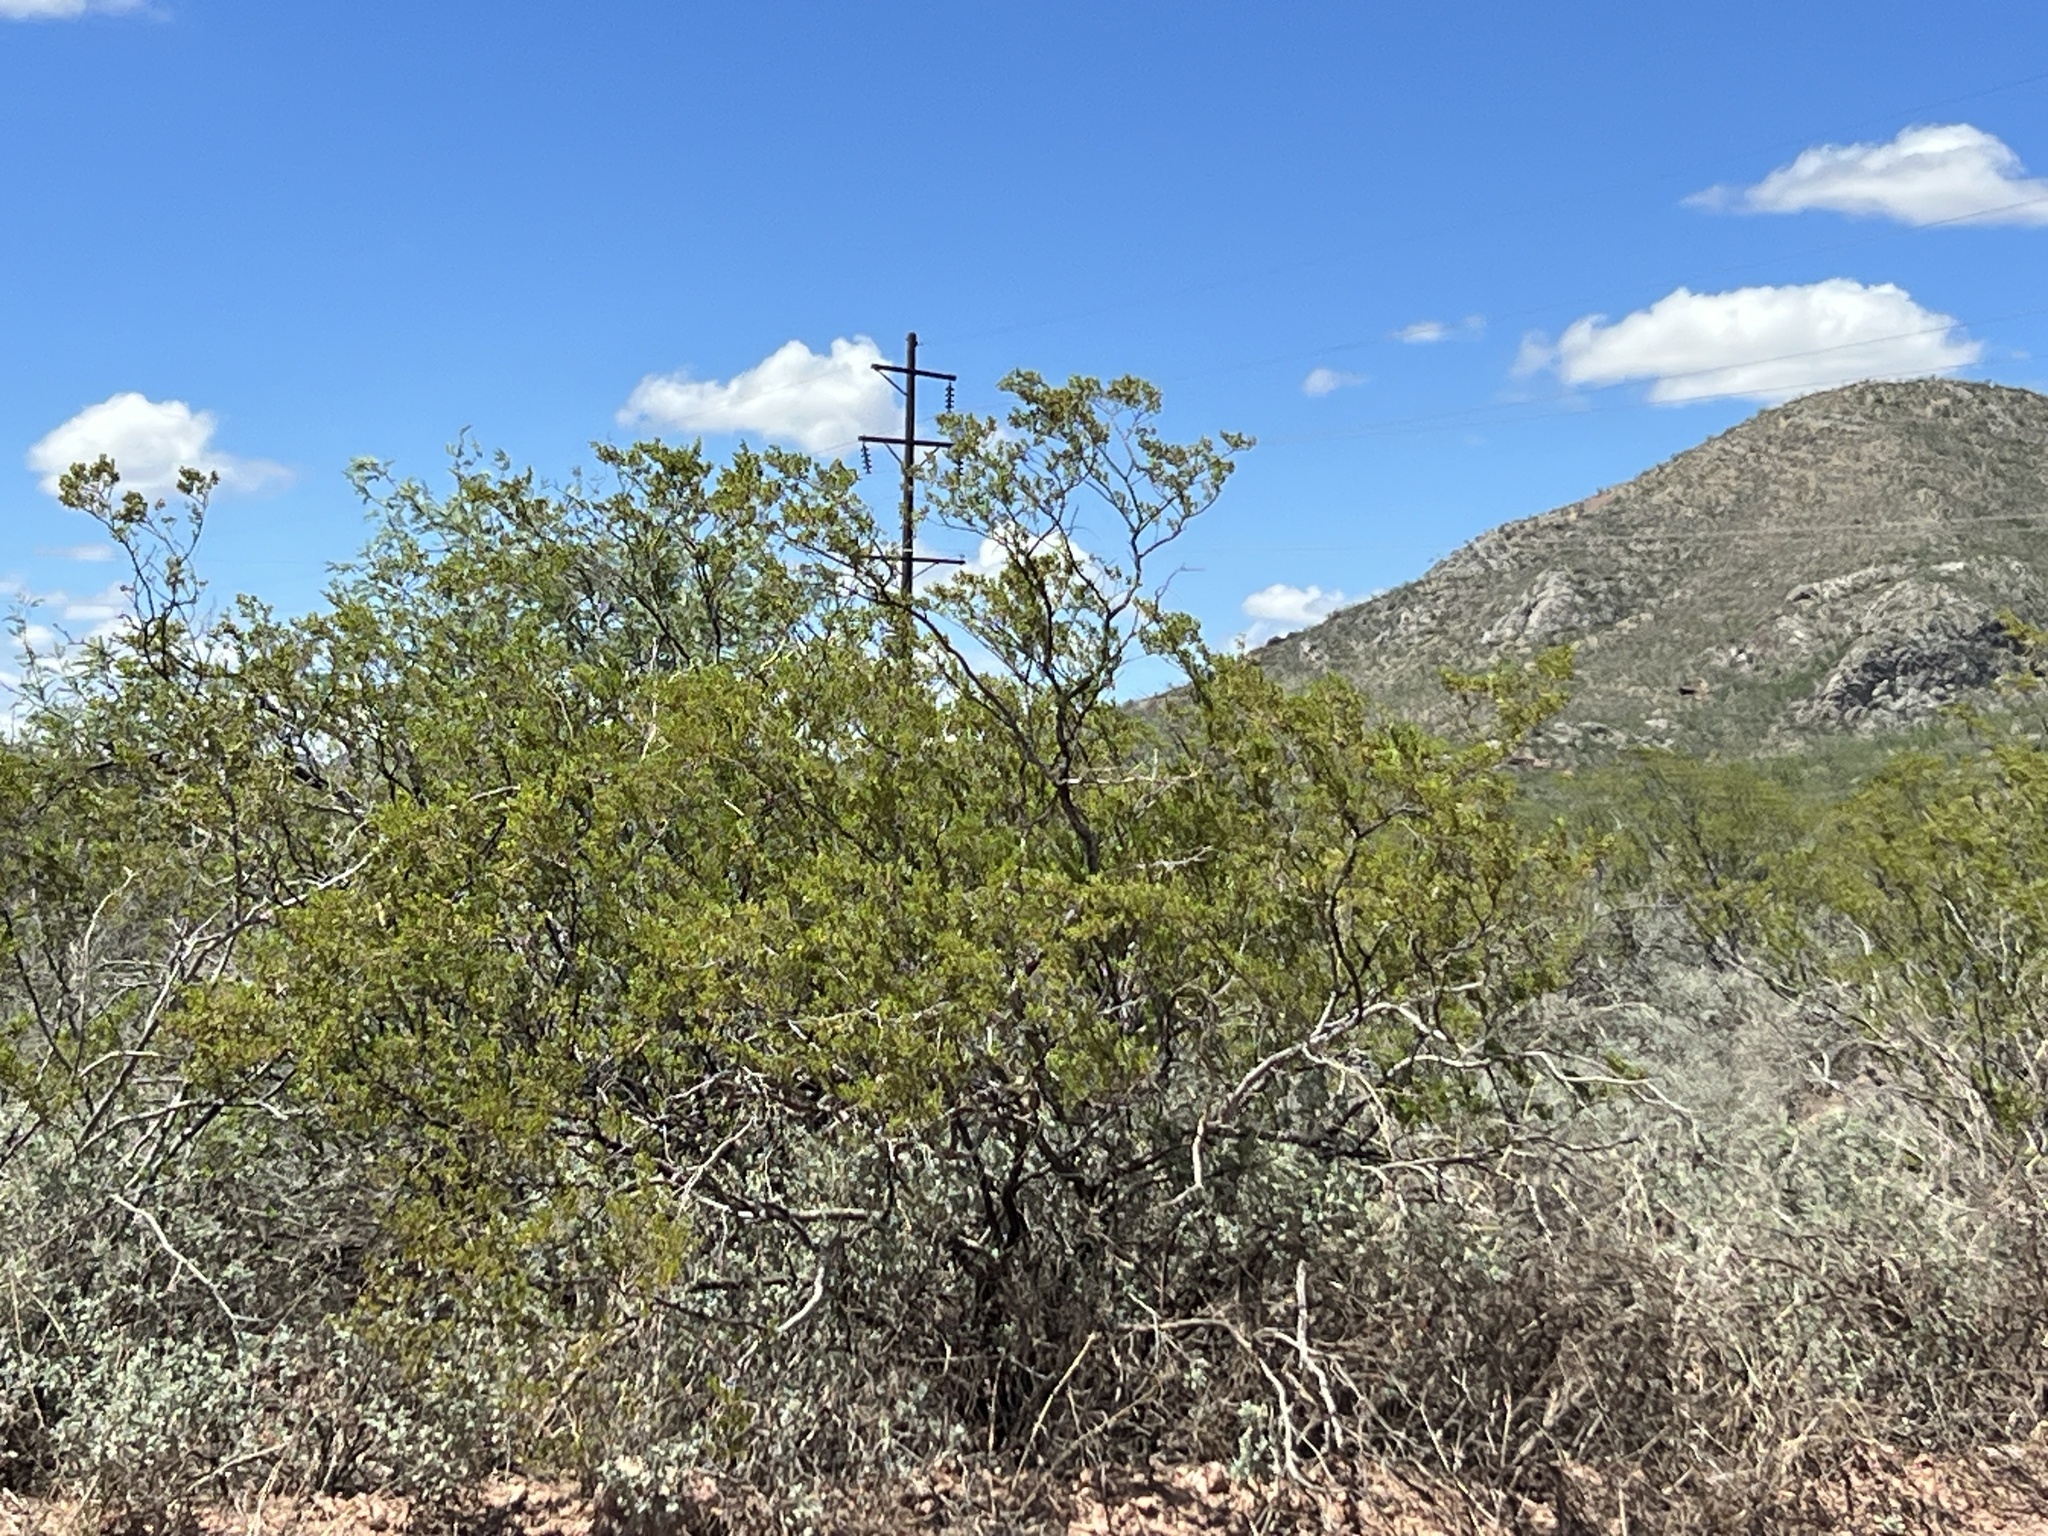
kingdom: Plantae
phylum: Tracheophyta
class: Magnoliopsida
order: Zygophyllales
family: Zygophyllaceae
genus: Larrea
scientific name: Larrea tridentata
